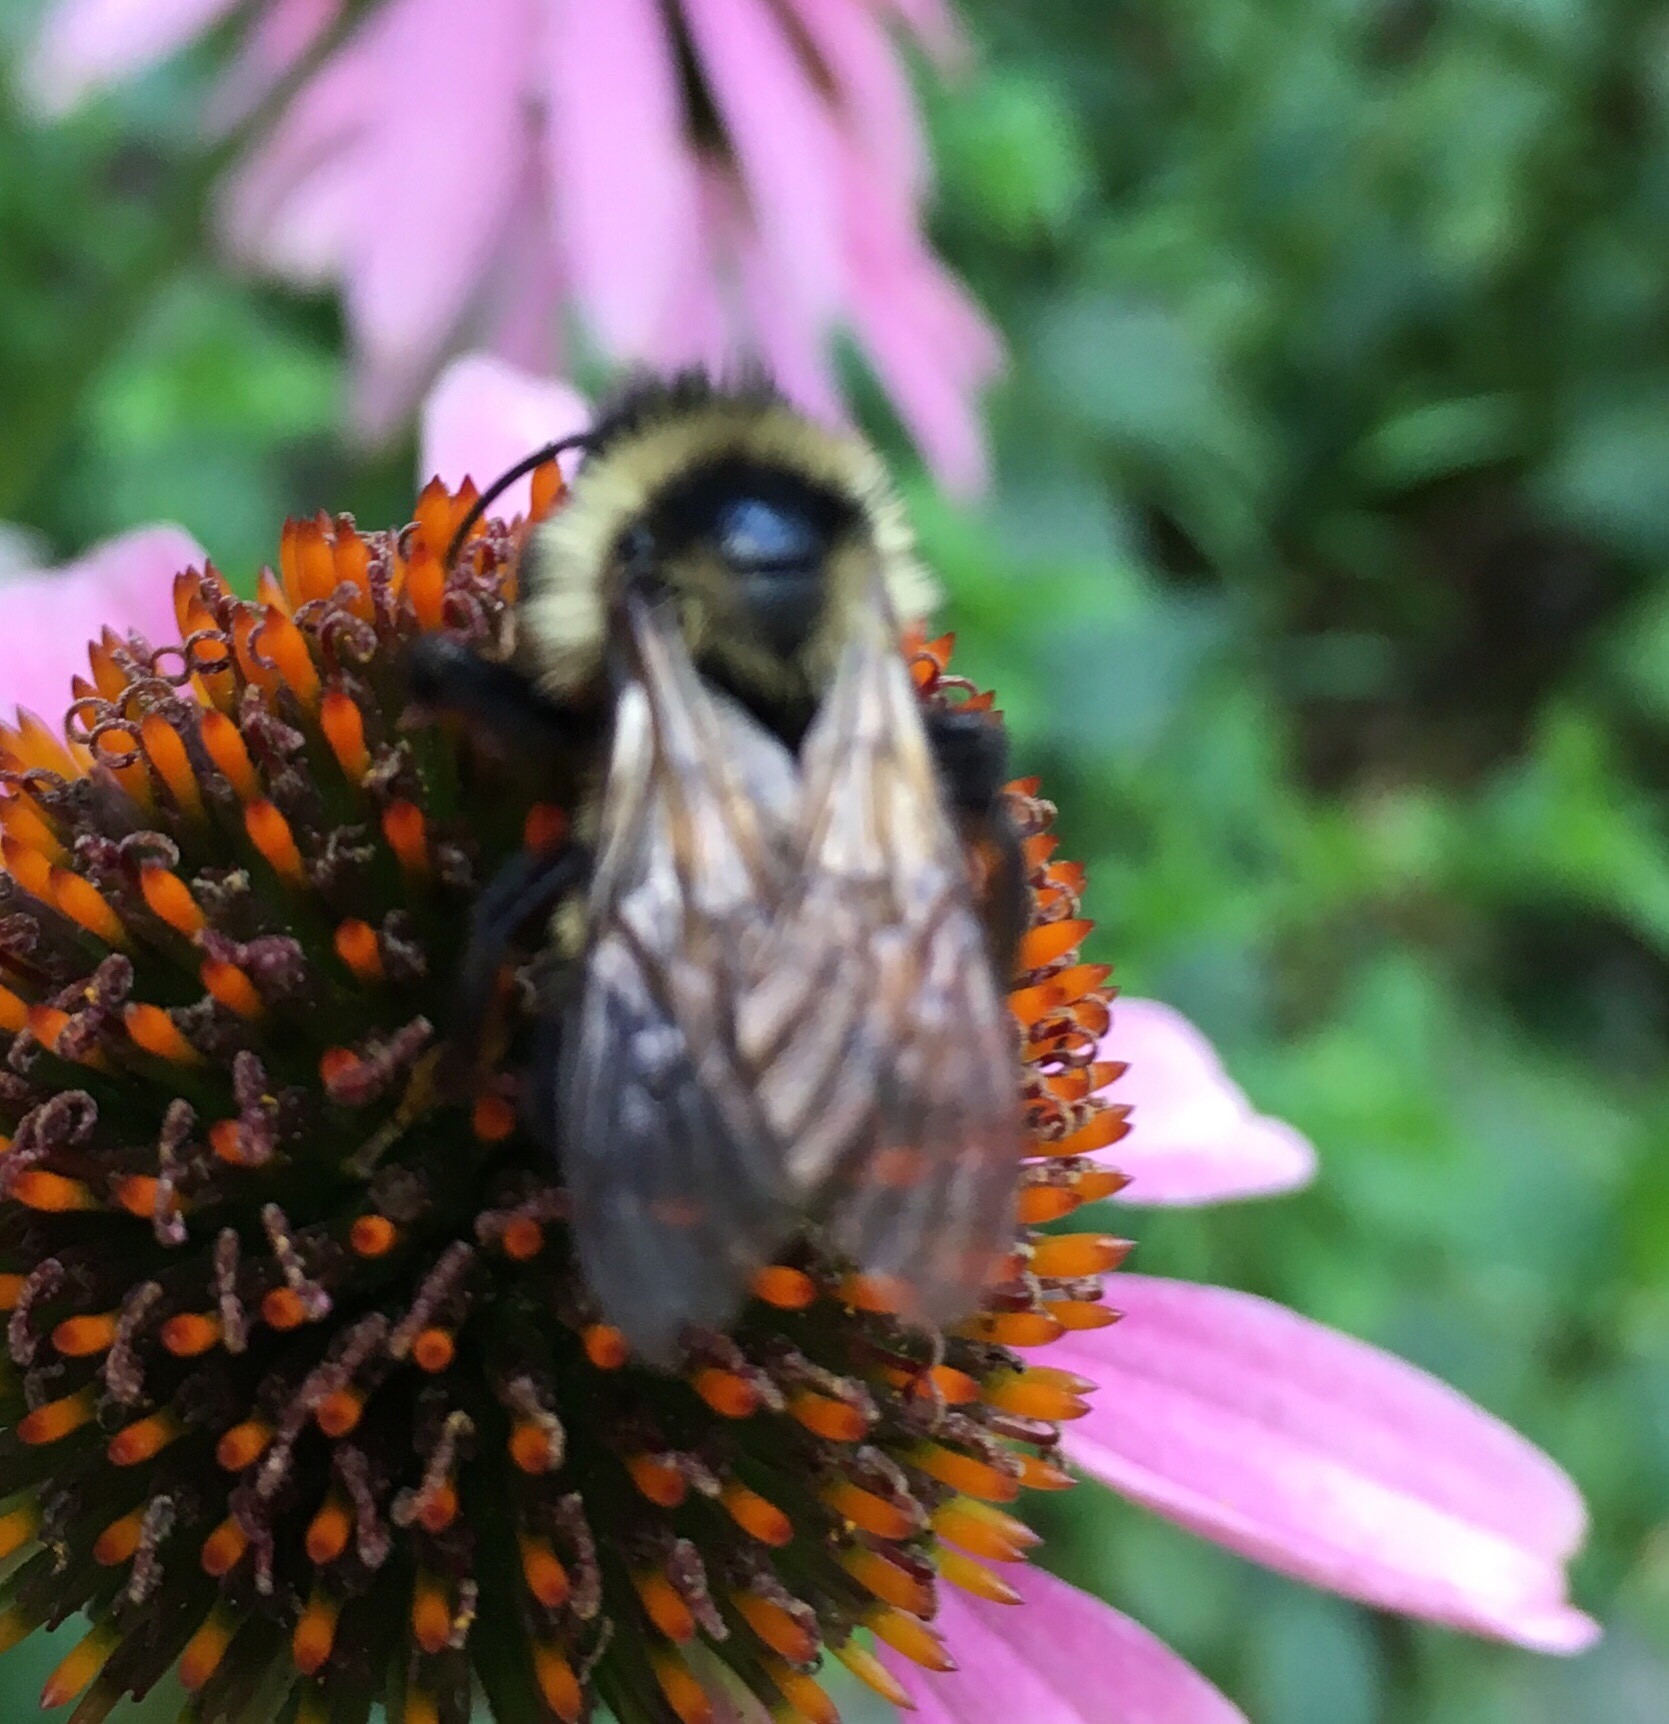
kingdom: Animalia
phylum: Arthropoda
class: Insecta
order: Hymenoptera
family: Apidae
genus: Bombus
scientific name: Bombus citrinus
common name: Lemon cuckoo bumble bee
